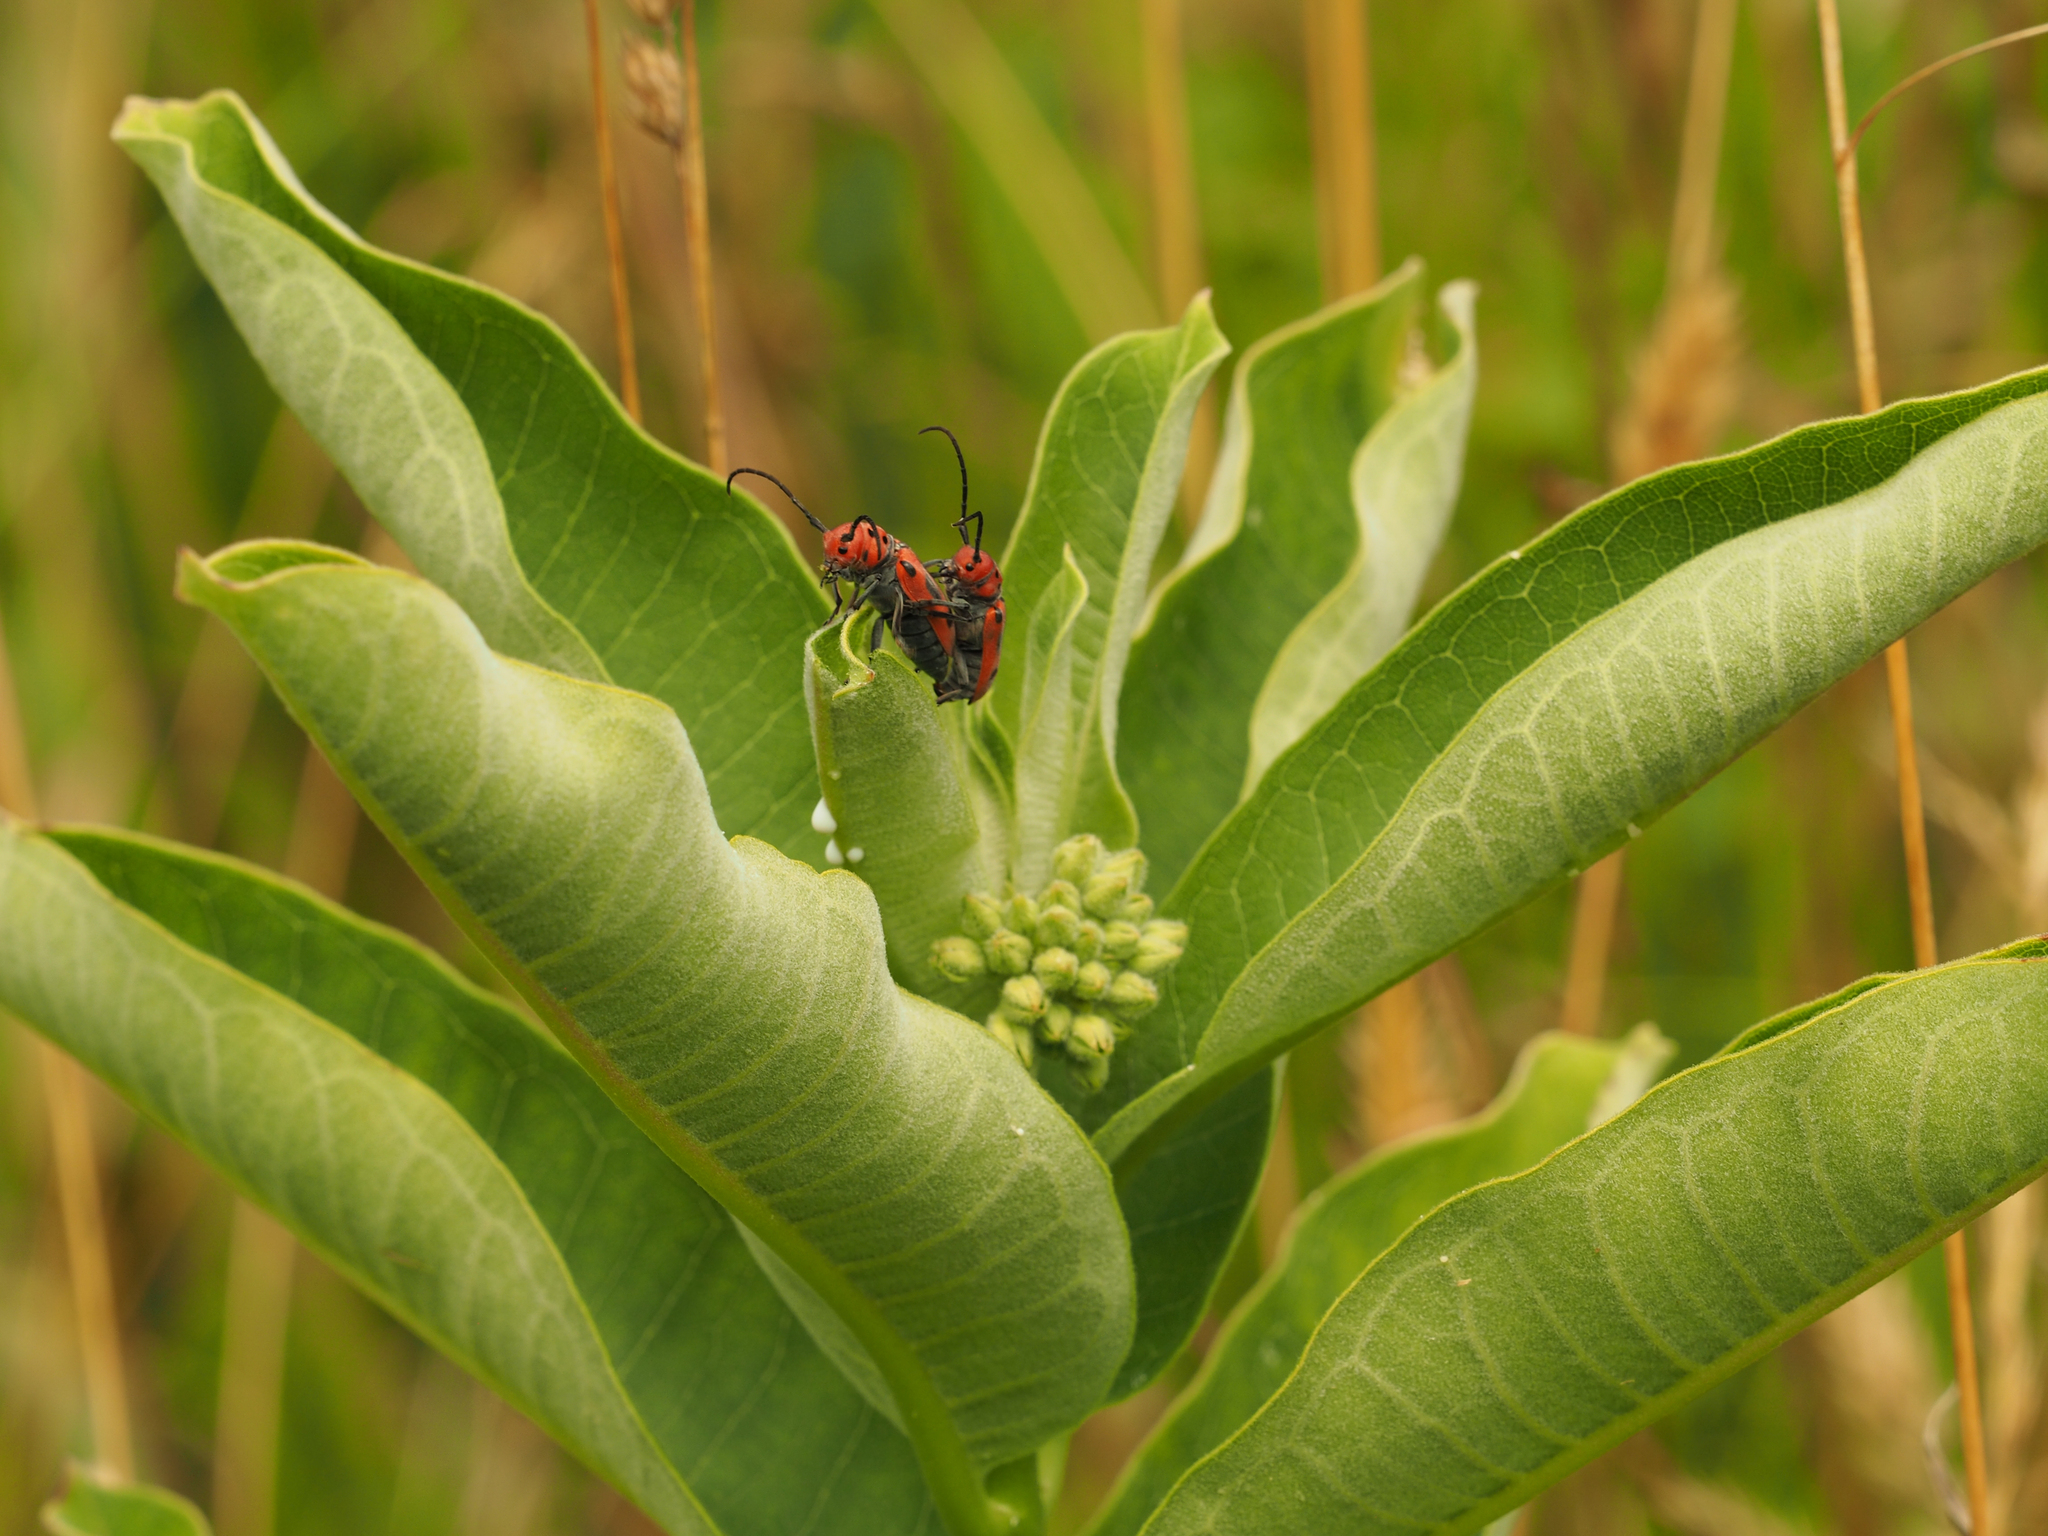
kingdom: Animalia
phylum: Arthropoda
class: Insecta
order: Coleoptera
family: Cerambycidae
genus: Tetraopes
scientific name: Tetraopes tetrophthalmus
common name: Red milkweed beetle
